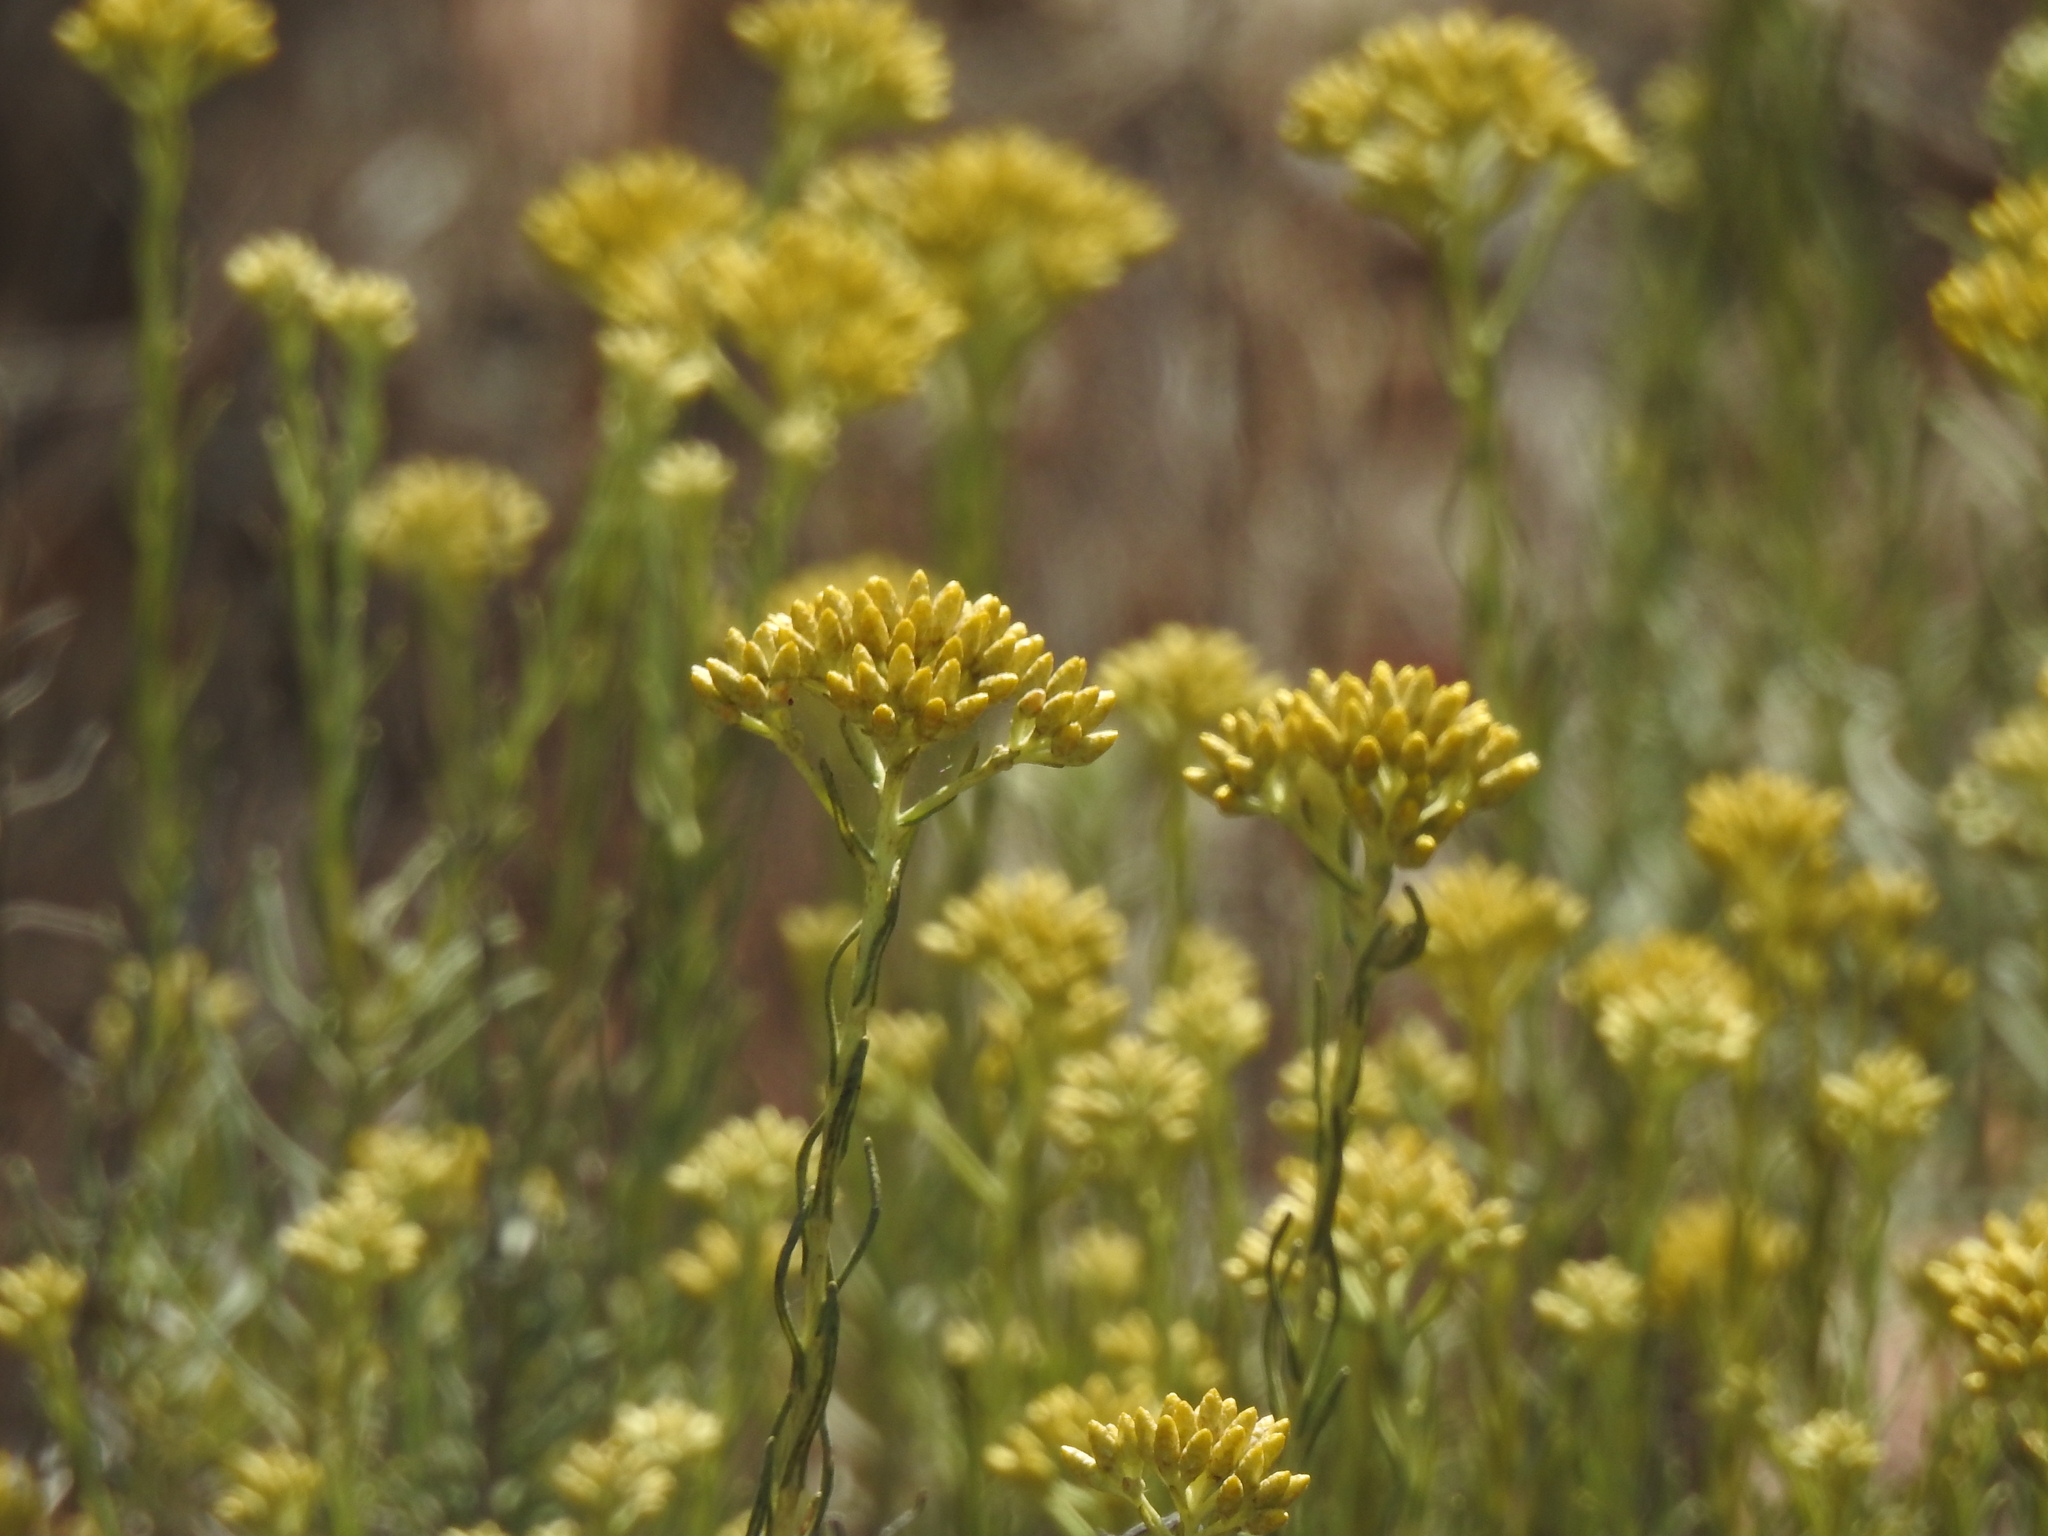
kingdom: Plantae
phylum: Tracheophyta
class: Magnoliopsida
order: Asterales
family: Asteraceae
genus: Helichrysum
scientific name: Helichrysum serotinum
